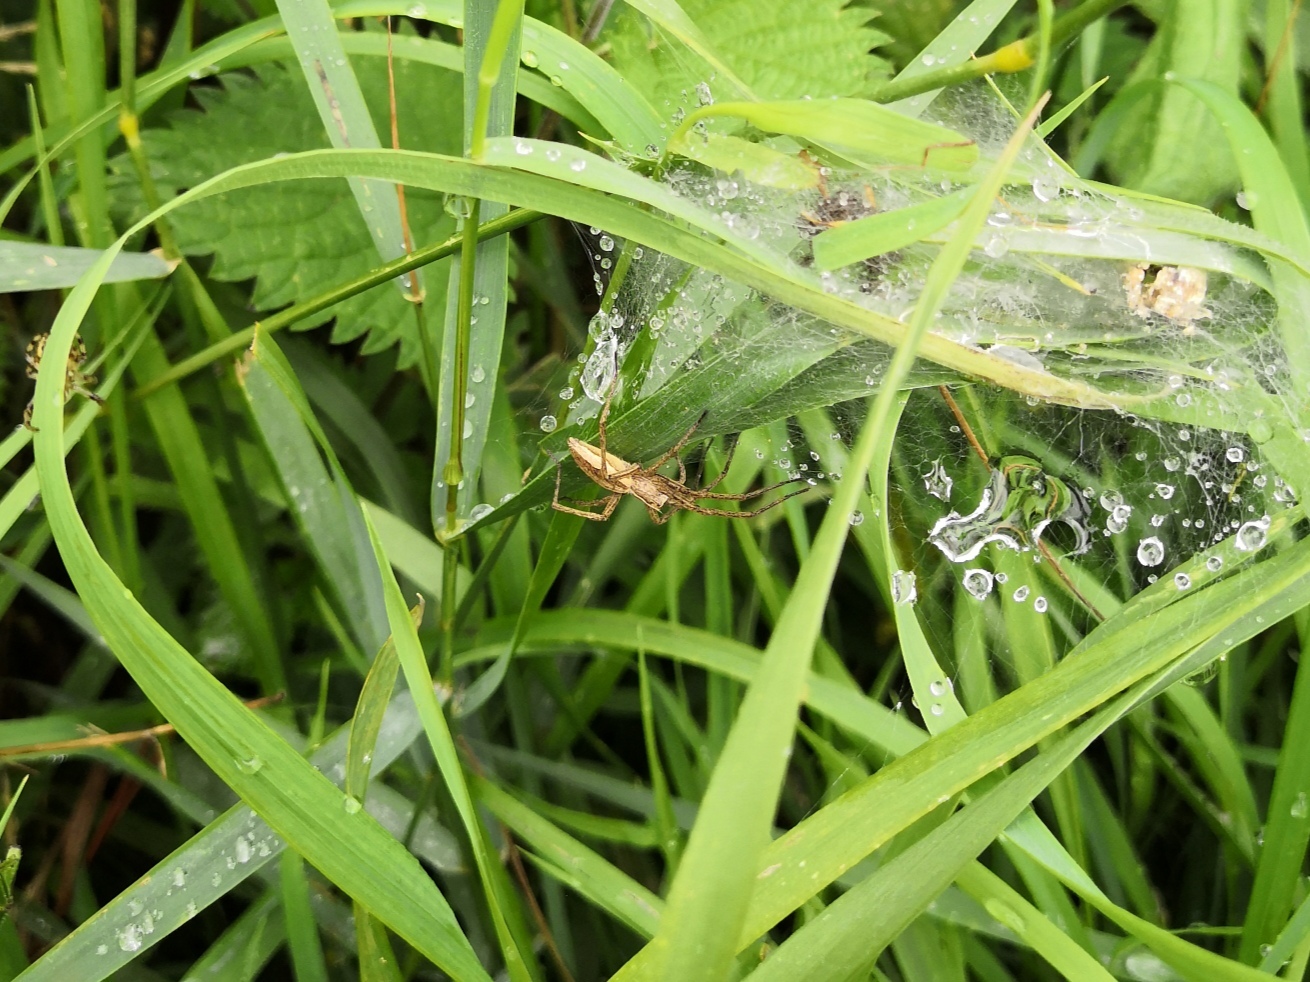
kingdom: Animalia
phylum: Arthropoda
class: Arachnida
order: Araneae
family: Pisauridae
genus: Pisaura
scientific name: Pisaura mirabilis
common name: Tent spider
